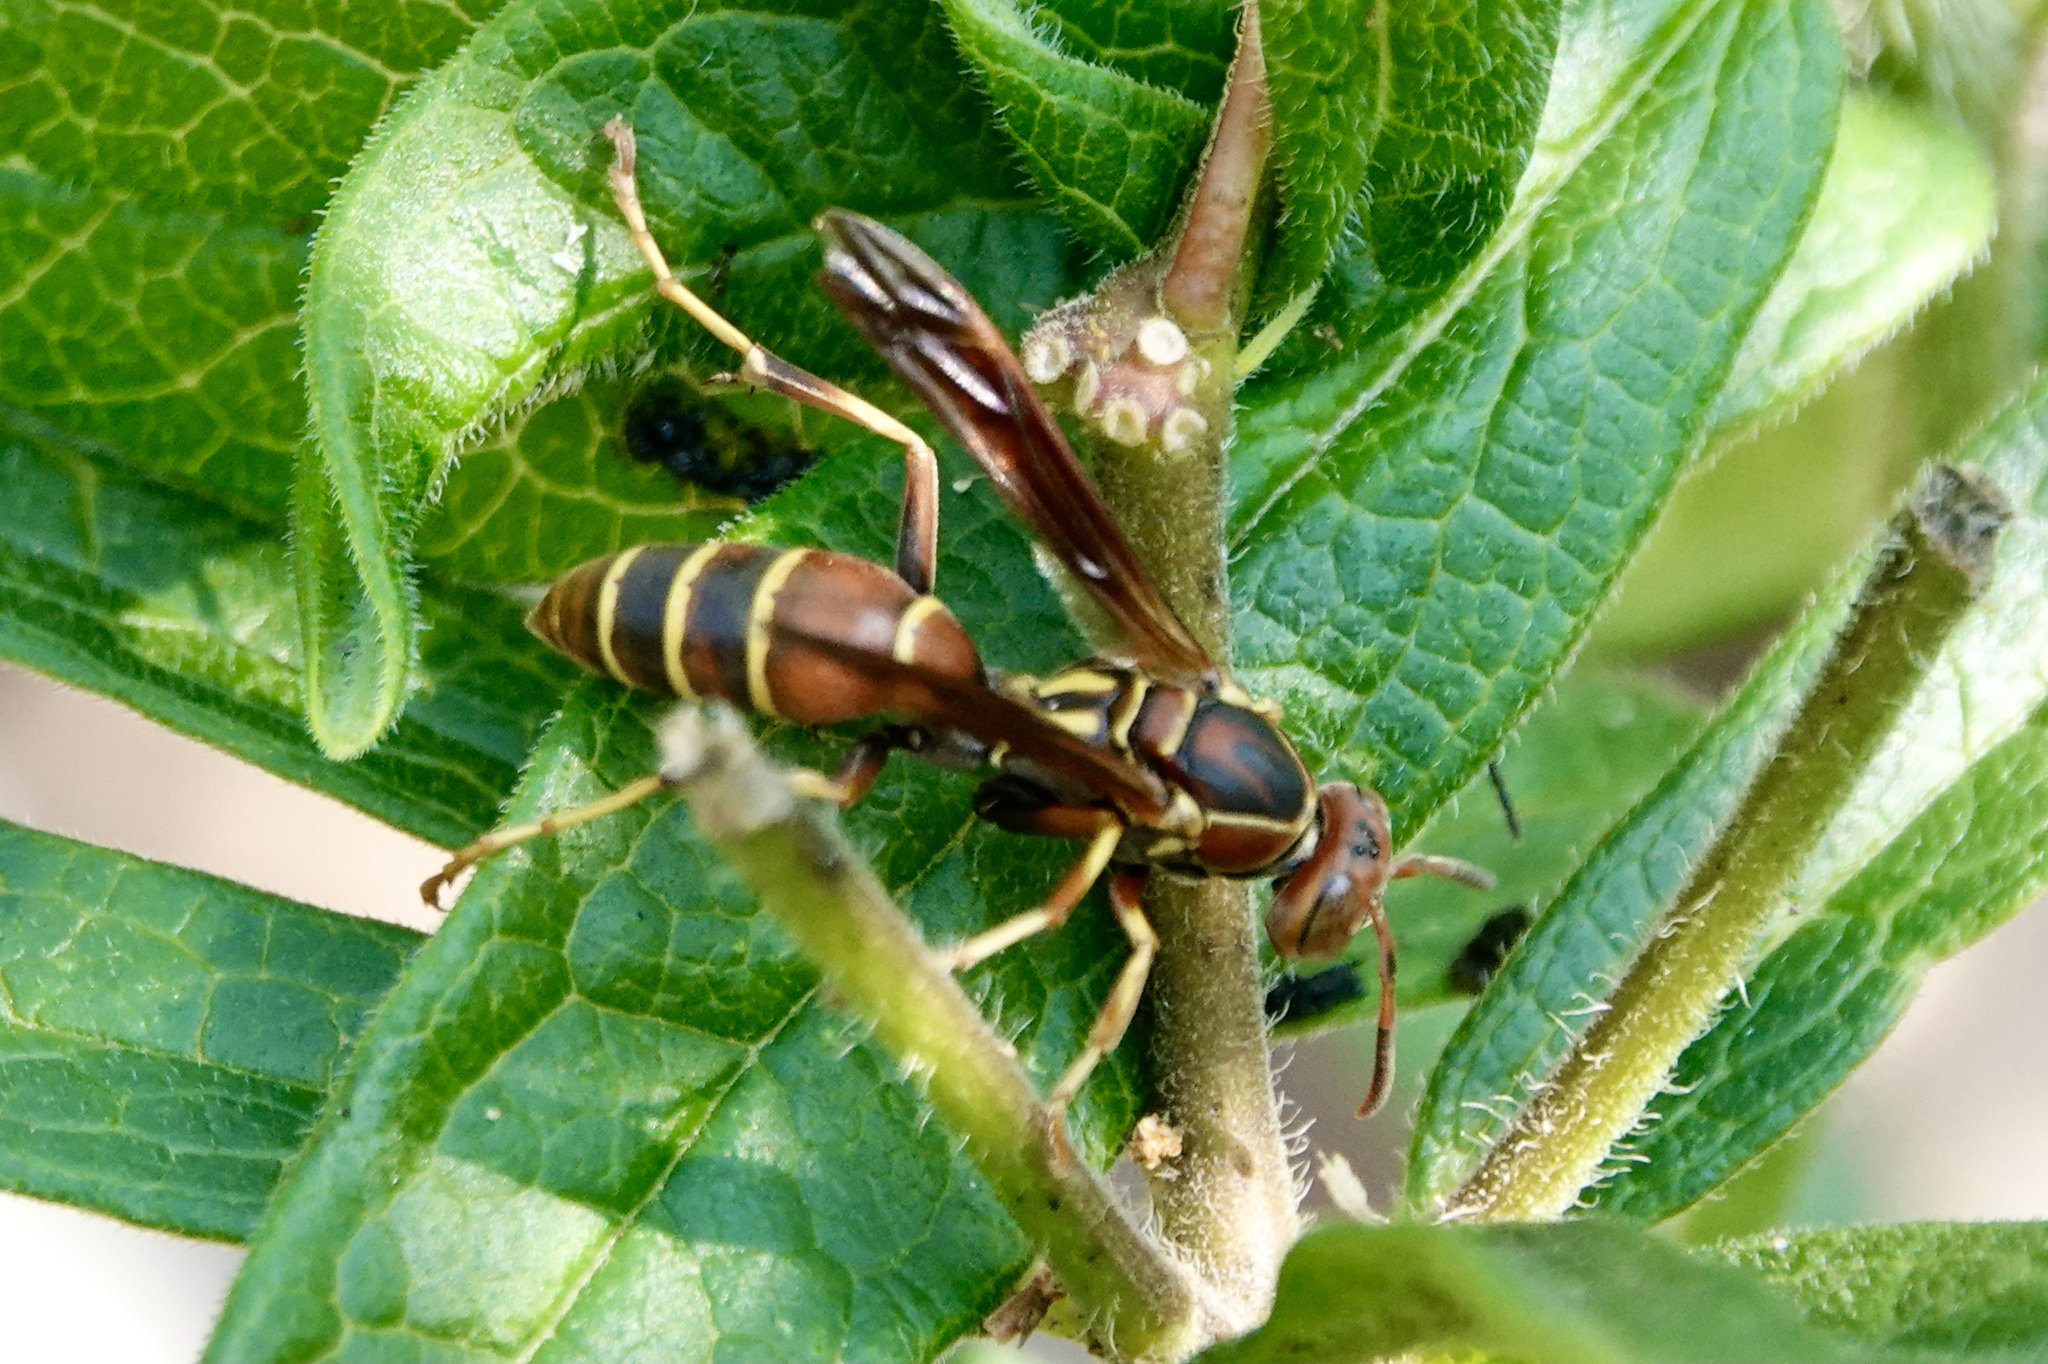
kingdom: Animalia
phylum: Arthropoda
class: Insecta
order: Hymenoptera
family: Eumenidae
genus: Polistes
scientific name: Polistes dorsalis
